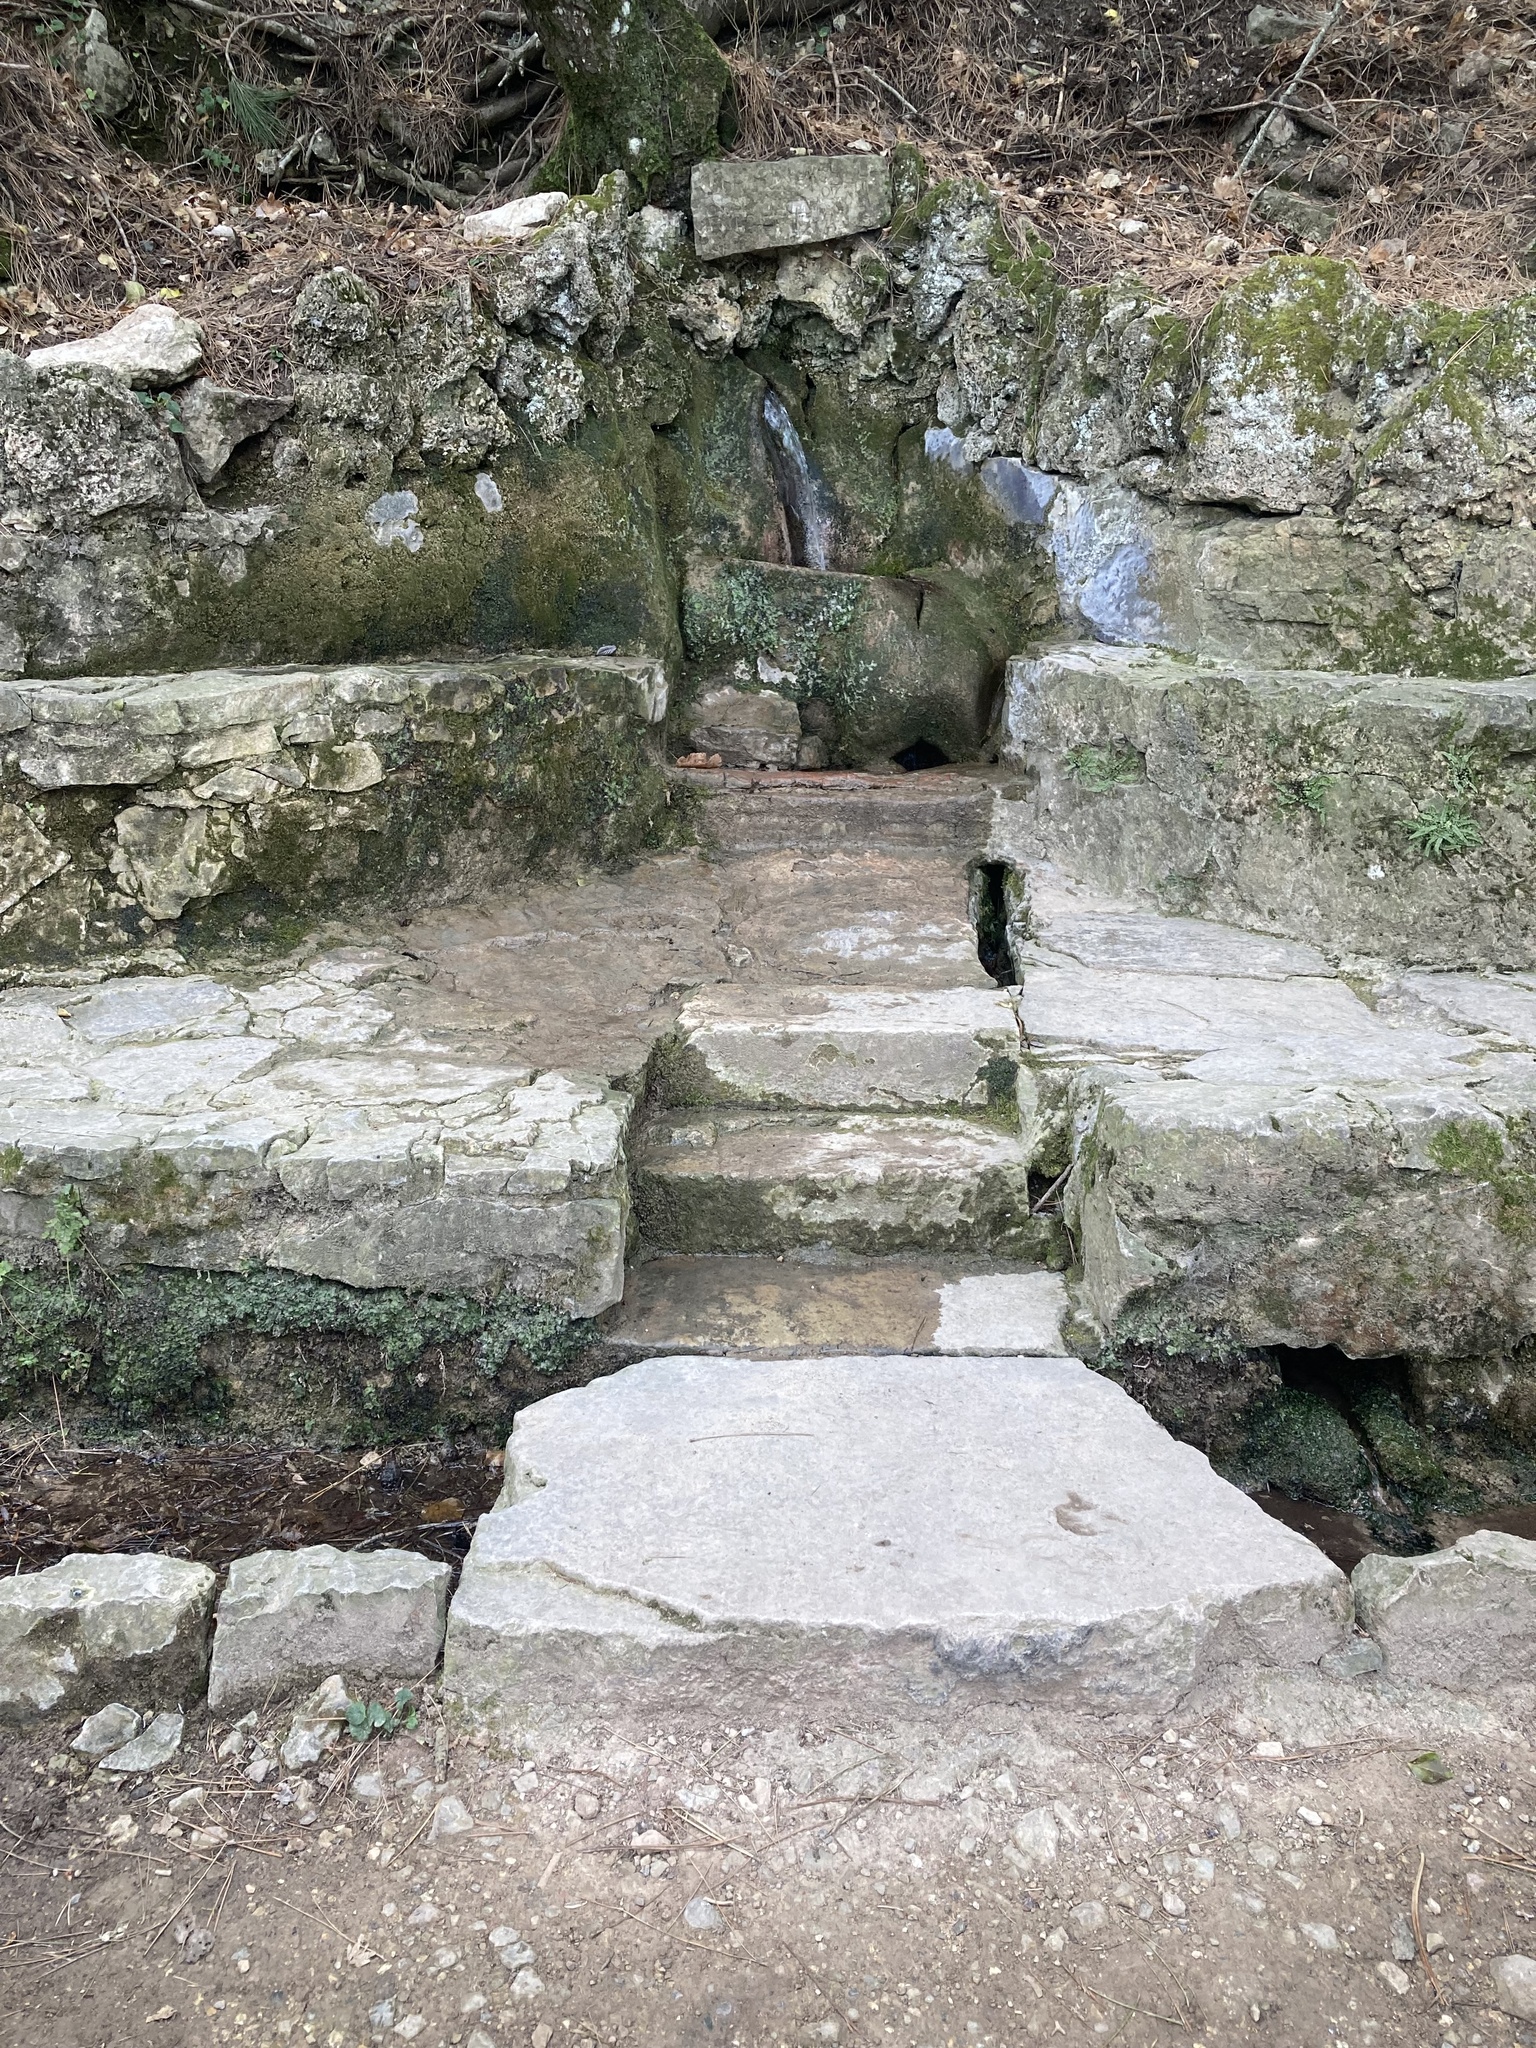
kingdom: Plantae
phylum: Marchantiophyta
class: Marchantiopsida
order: Marchantiales
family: Conocephalaceae
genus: Conocephalum
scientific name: Conocephalum conicum
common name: Great scented liverwort
